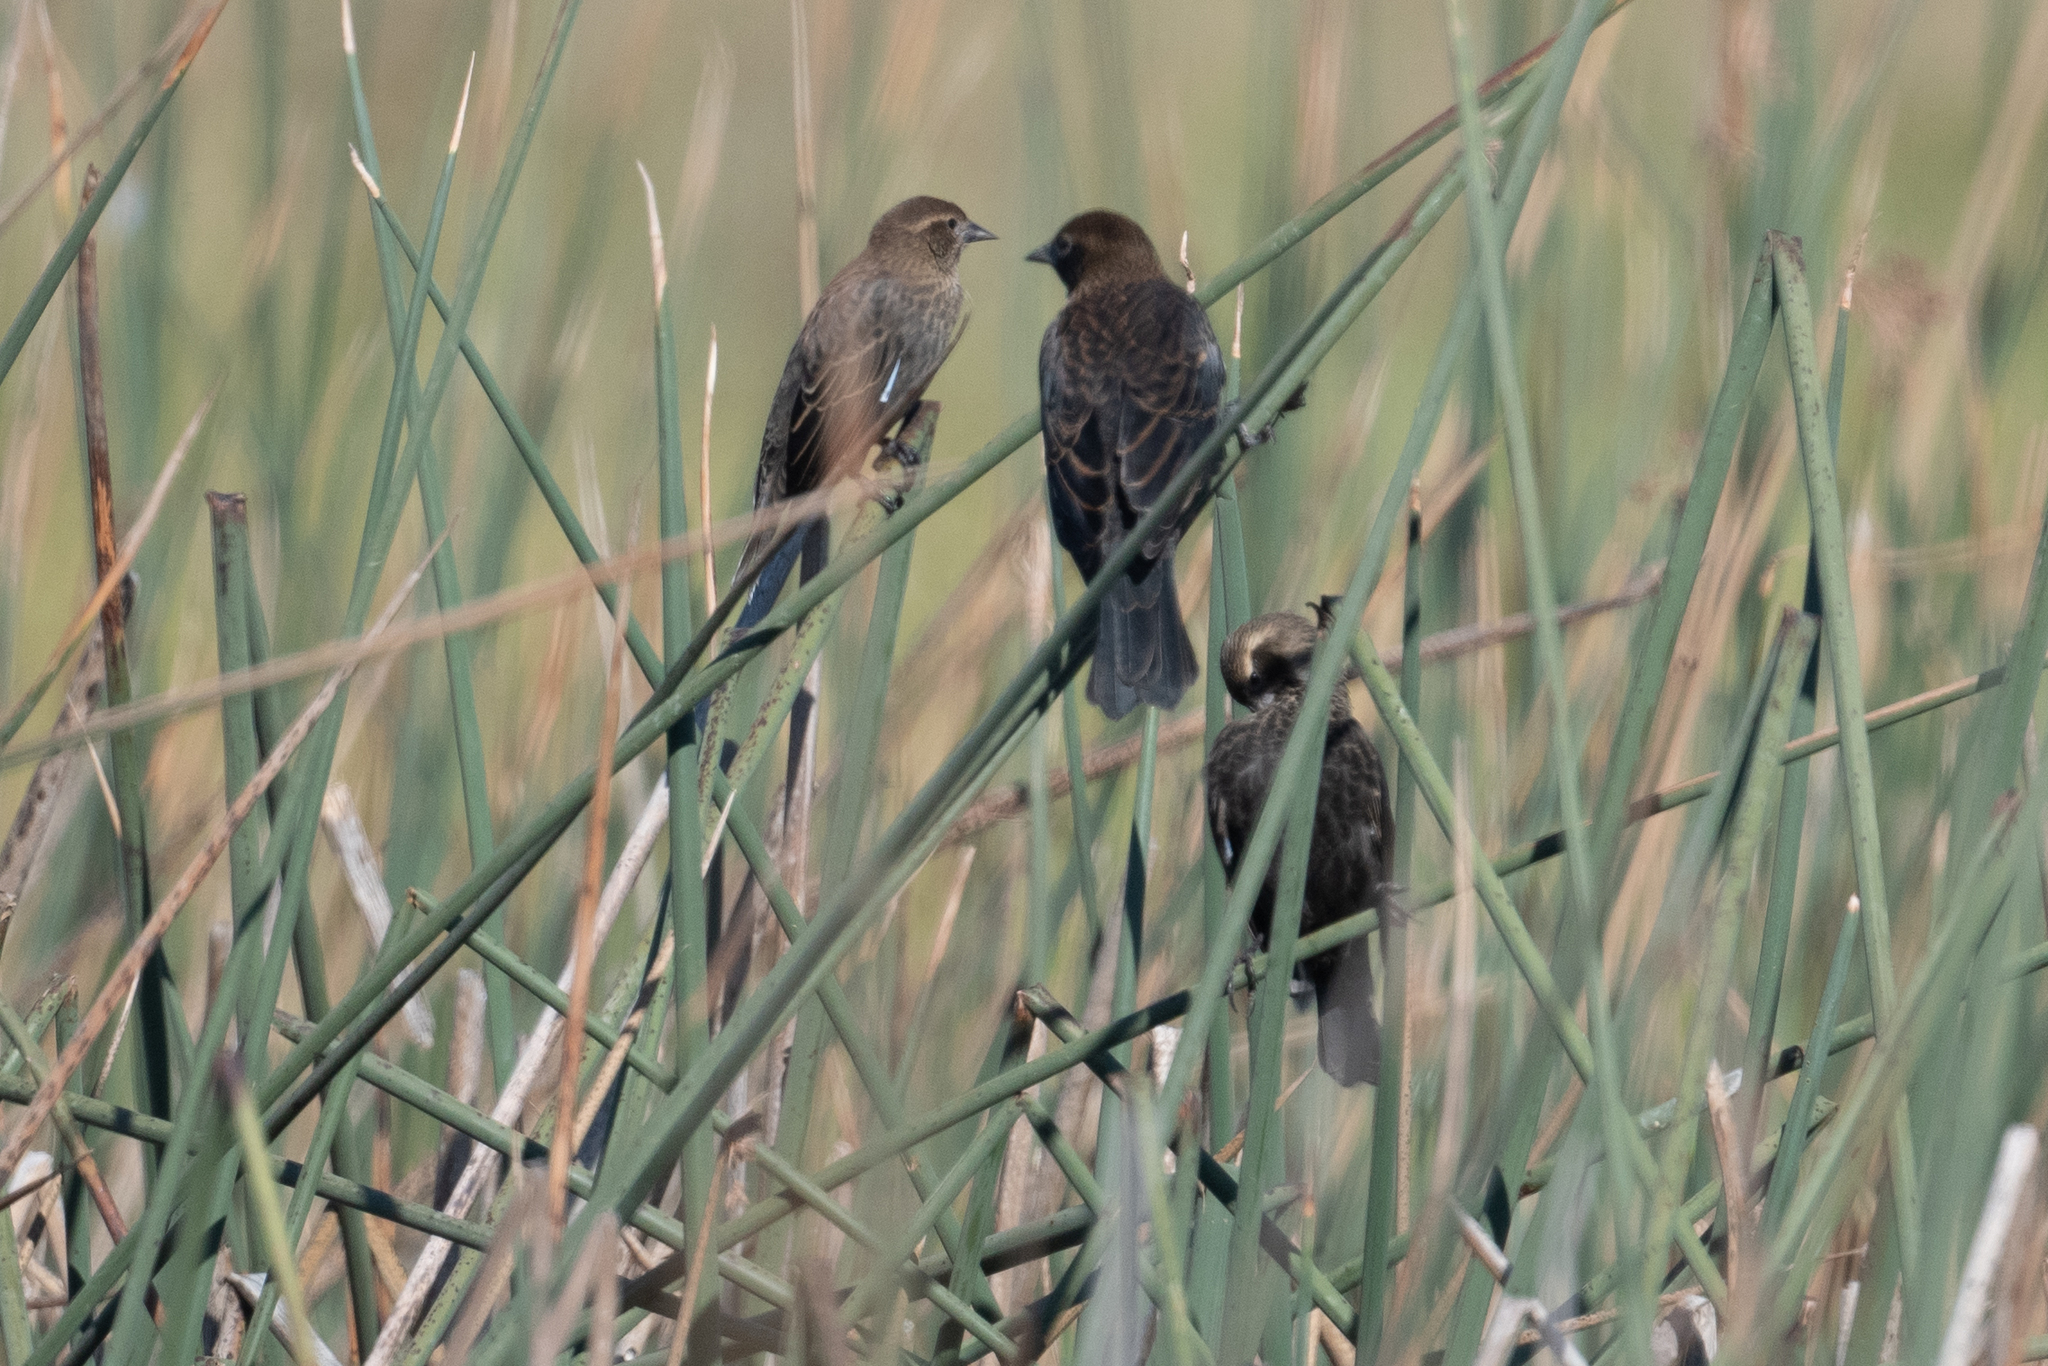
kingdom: Animalia
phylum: Chordata
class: Aves
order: Passeriformes
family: Icteridae
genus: Agelaius
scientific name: Agelaius phoeniceus
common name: Red-winged blackbird
